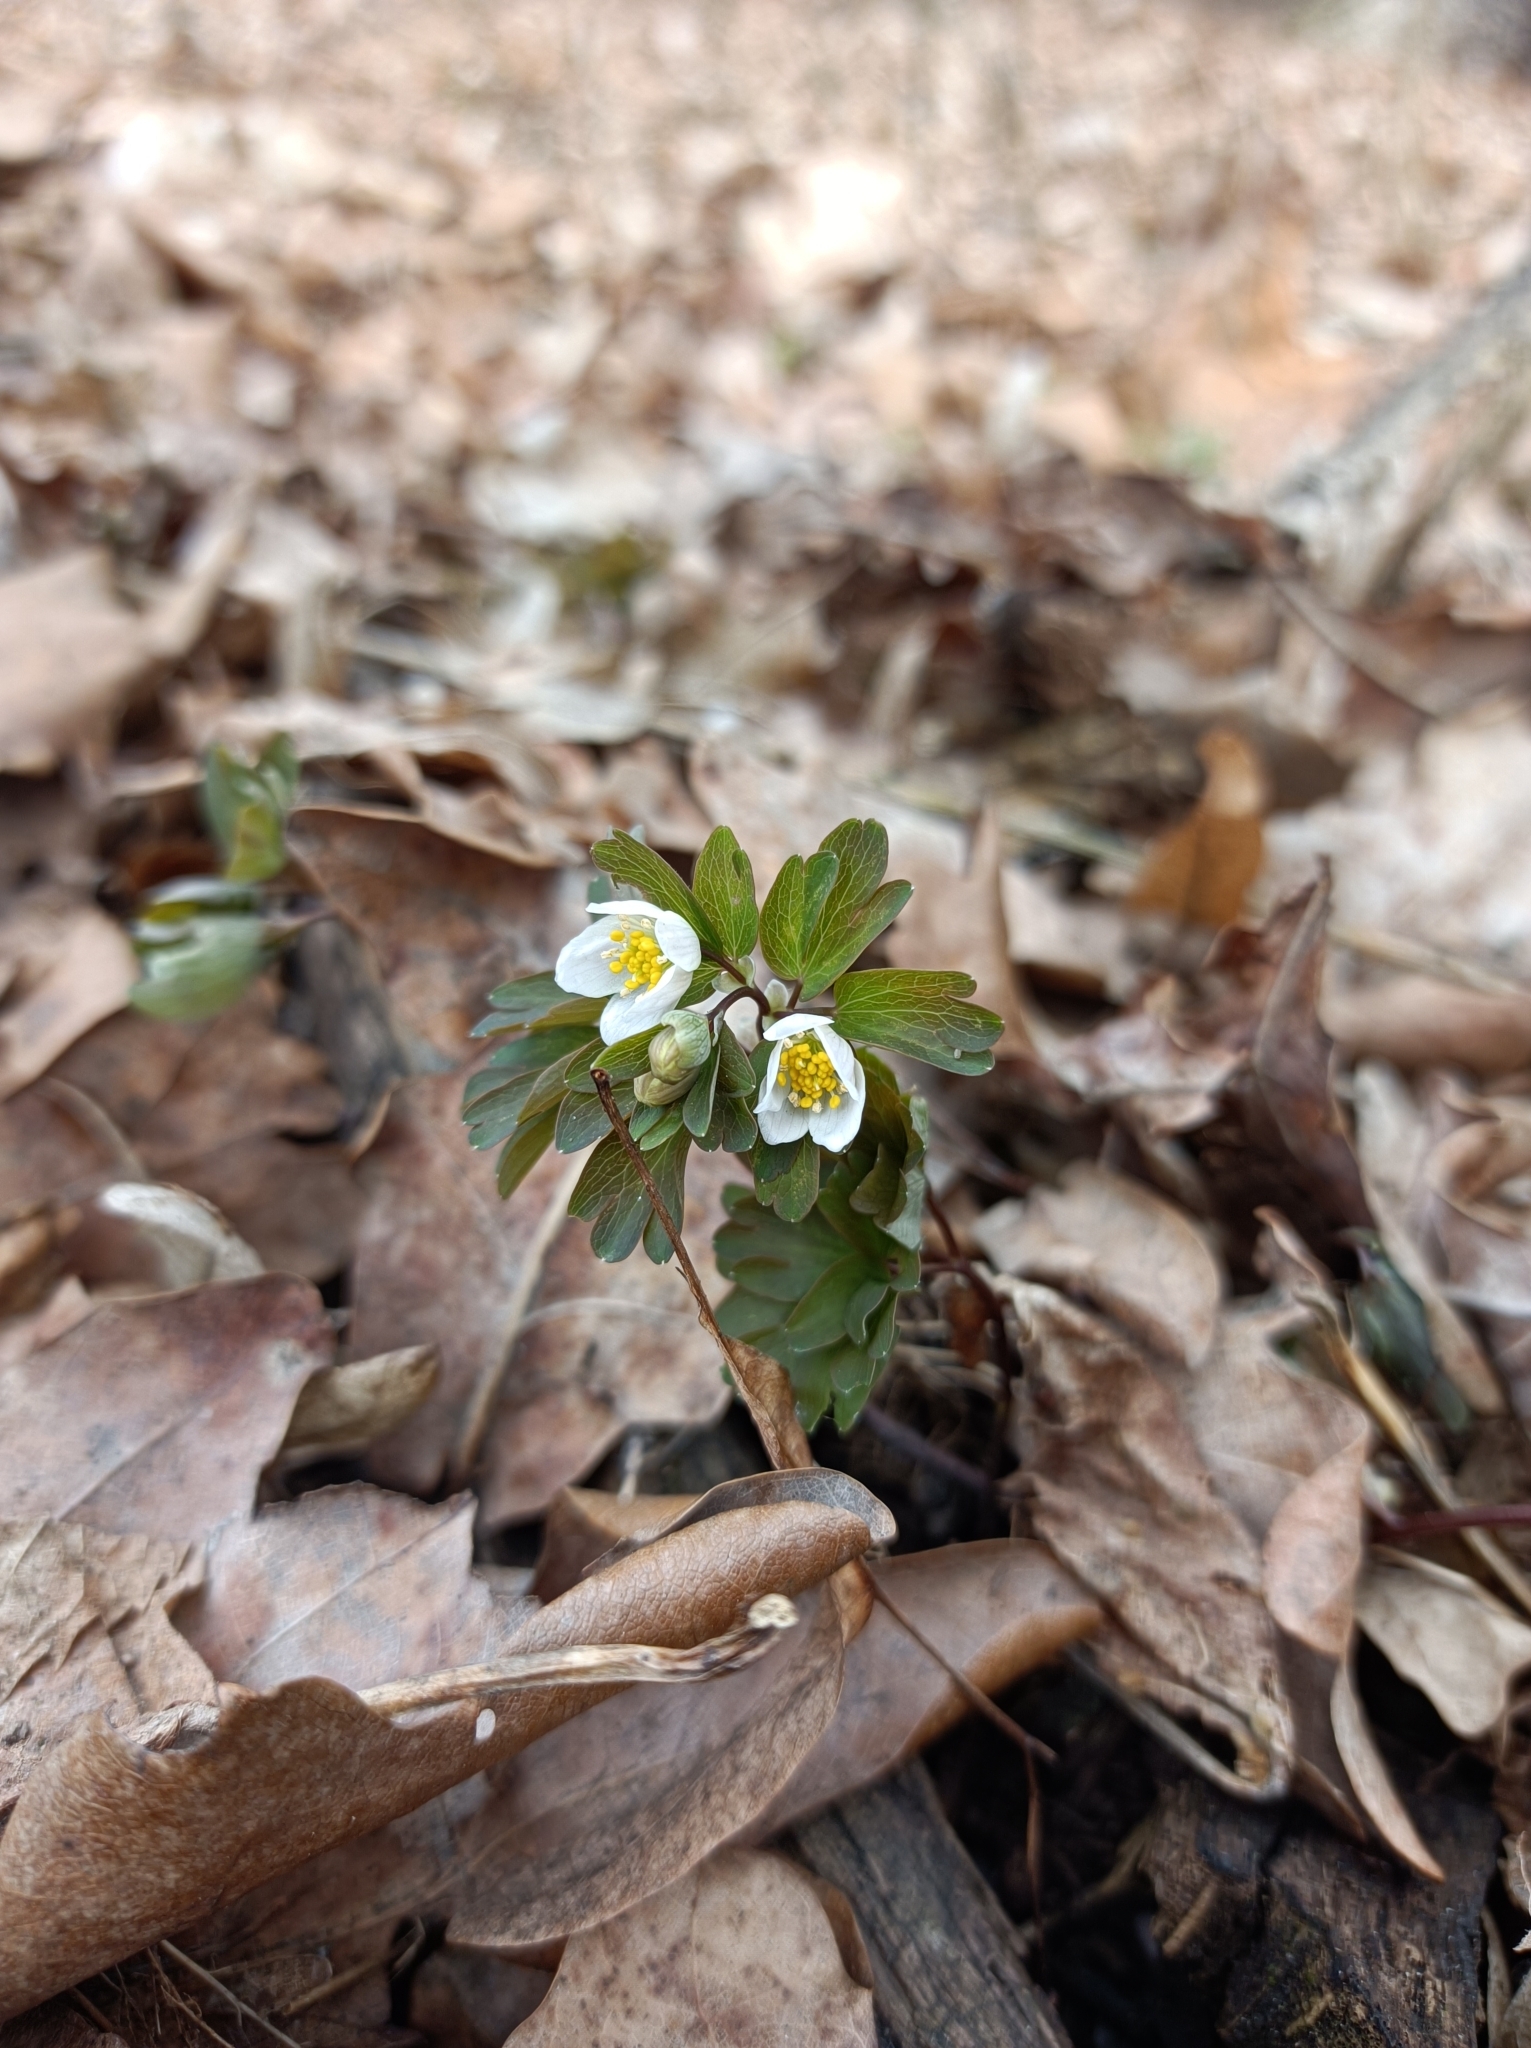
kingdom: Plantae
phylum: Tracheophyta
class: Magnoliopsida
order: Ranunculales
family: Ranunculaceae
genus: Isopyrum
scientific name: Isopyrum thalictroides
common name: Isopyrum
